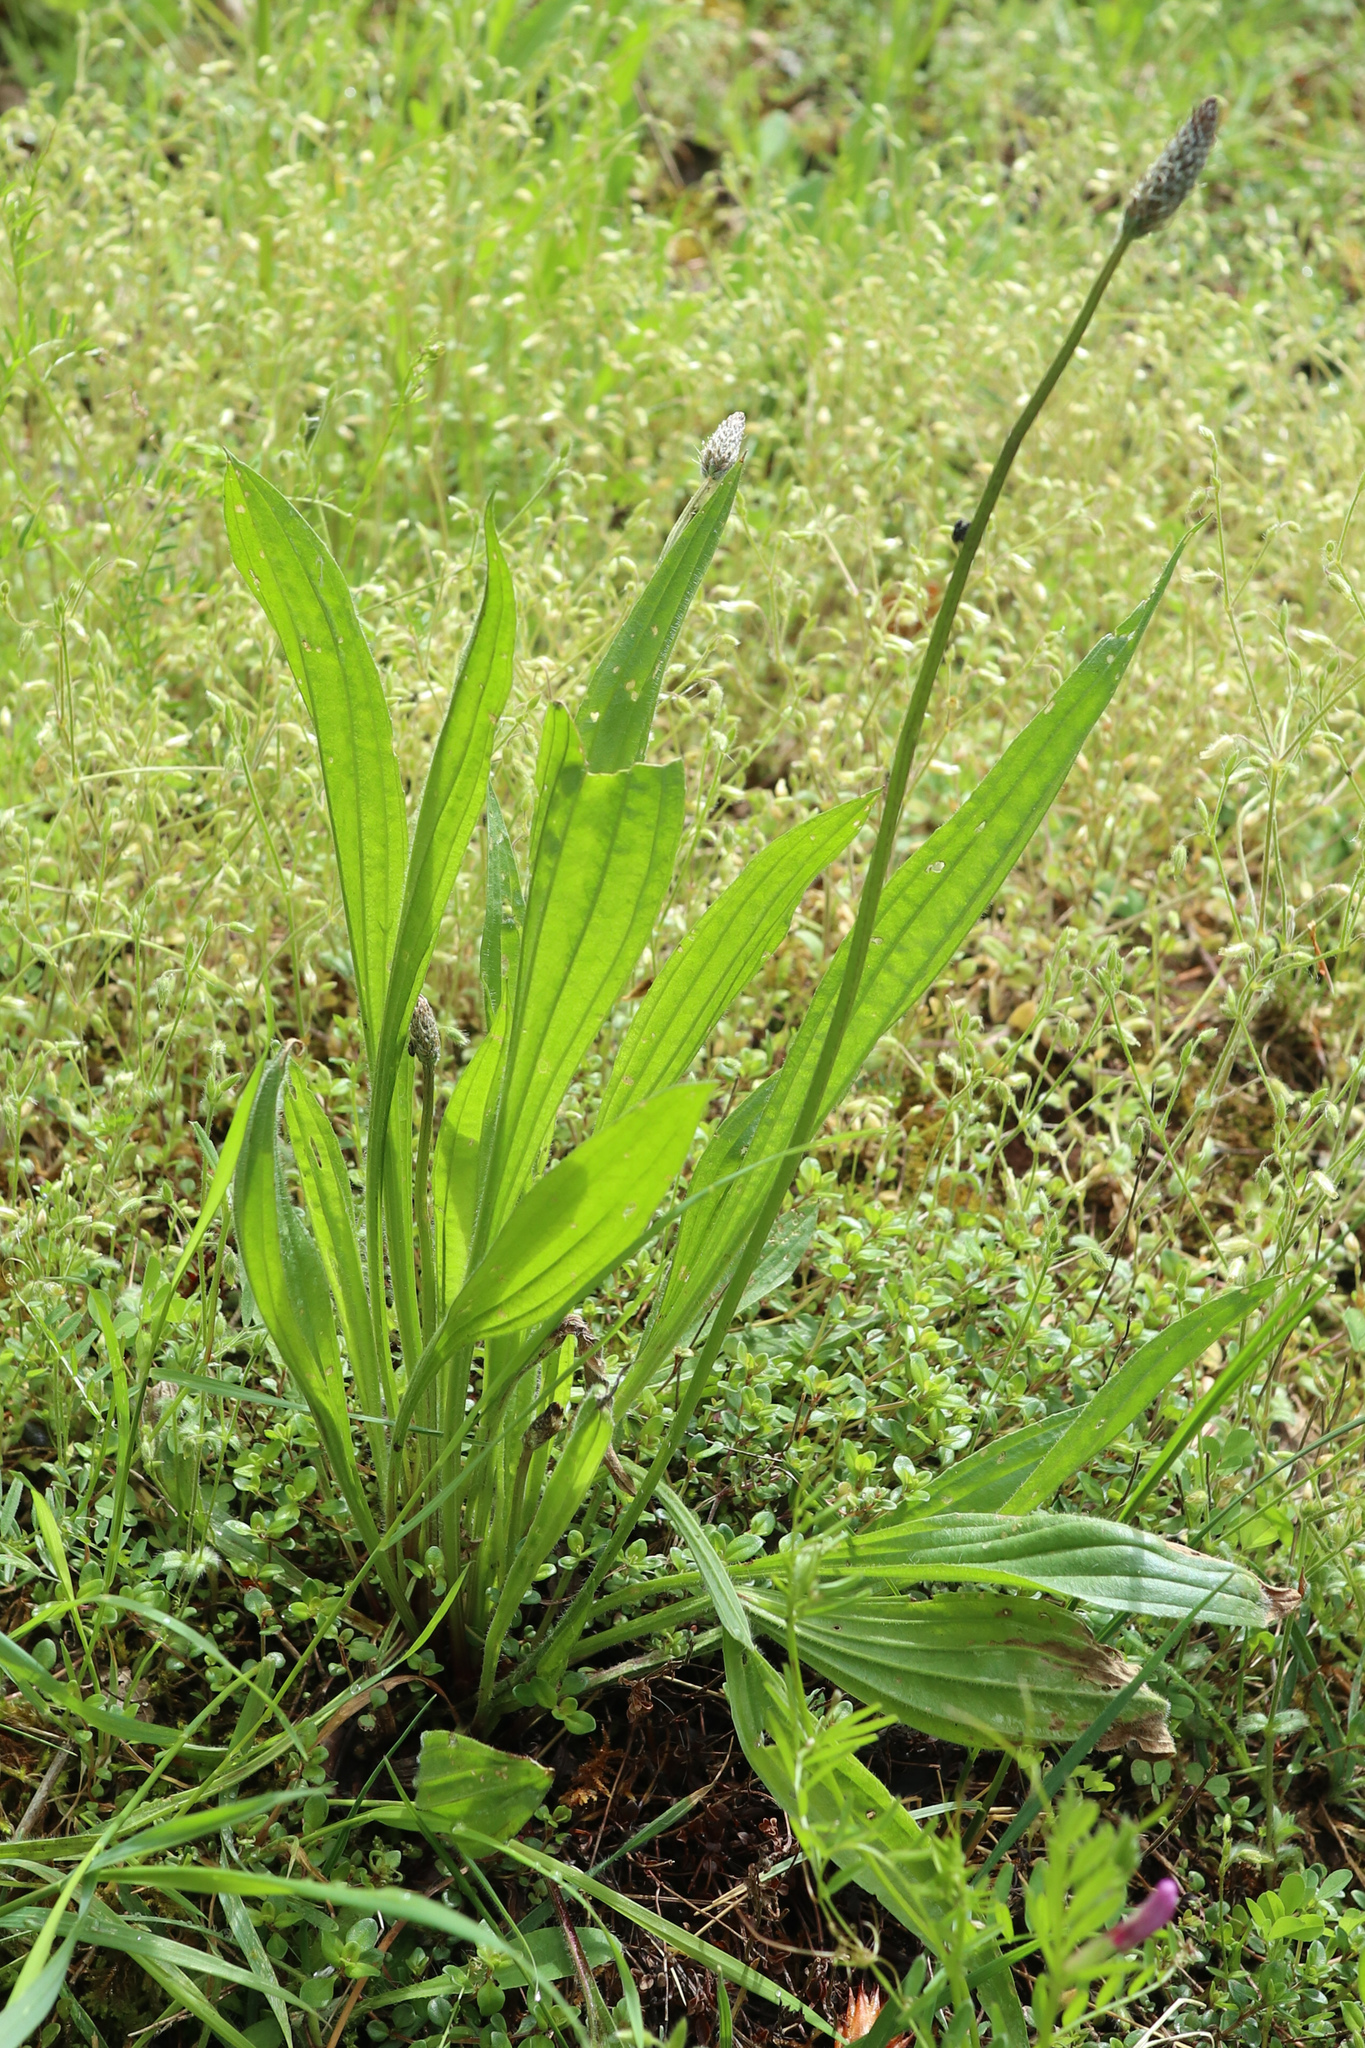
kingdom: Plantae
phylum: Tracheophyta
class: Magnoliopsida
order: Lamiales
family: Plantaginaceae
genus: Plantago
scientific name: Plantago lanceolata
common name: Ribwort plantain
